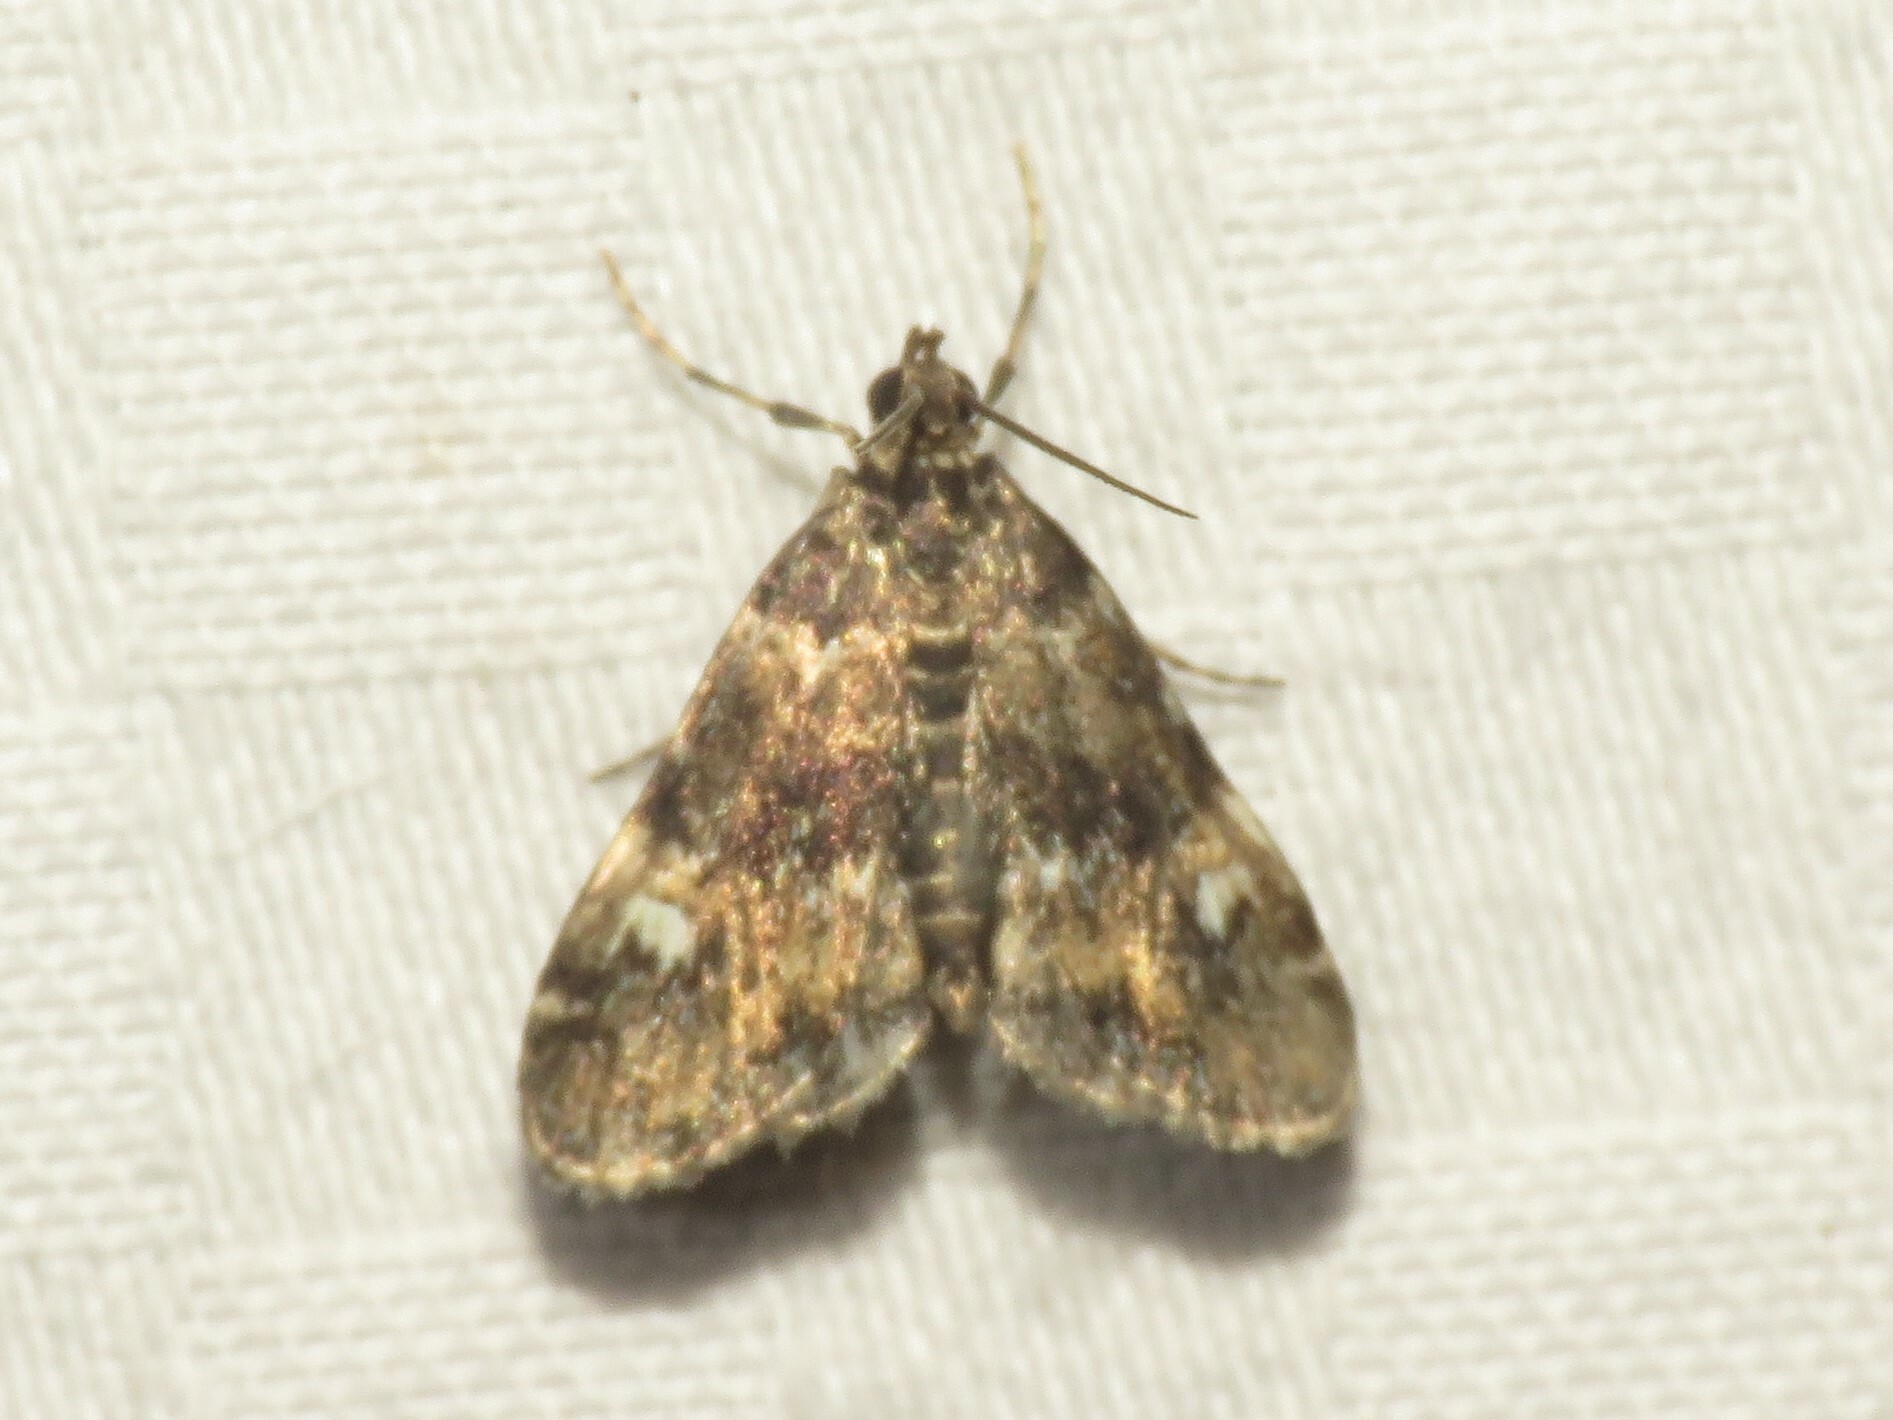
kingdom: Animalia
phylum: Arthropoda
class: Insecta
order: Lepidoptera
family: Crambidae
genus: Elophila
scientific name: Elophila obliteralis
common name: Waterlily leafcutter moth
